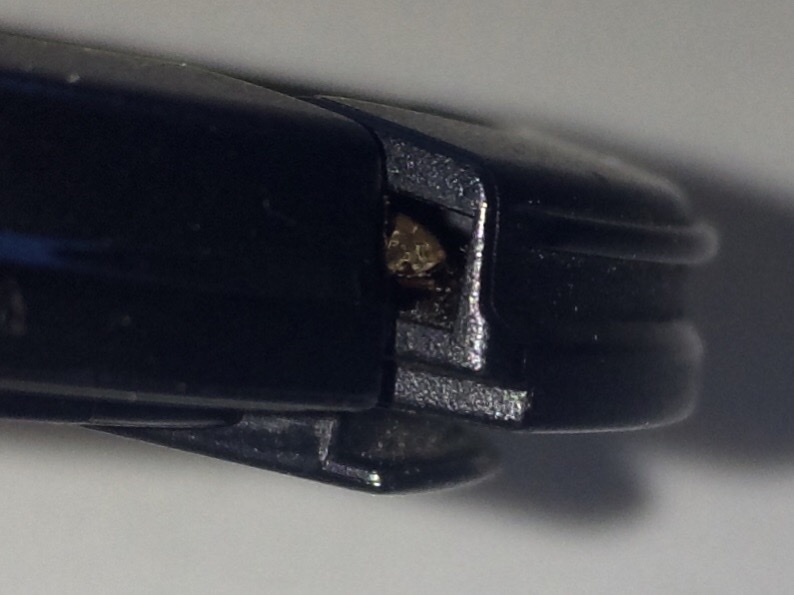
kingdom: Animalia
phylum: Arthropoda
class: Insecta
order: Hemiptera
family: Lygaeidae
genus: Kleidocerys
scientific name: Kleidocerys resedae
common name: Birch catkin bug
